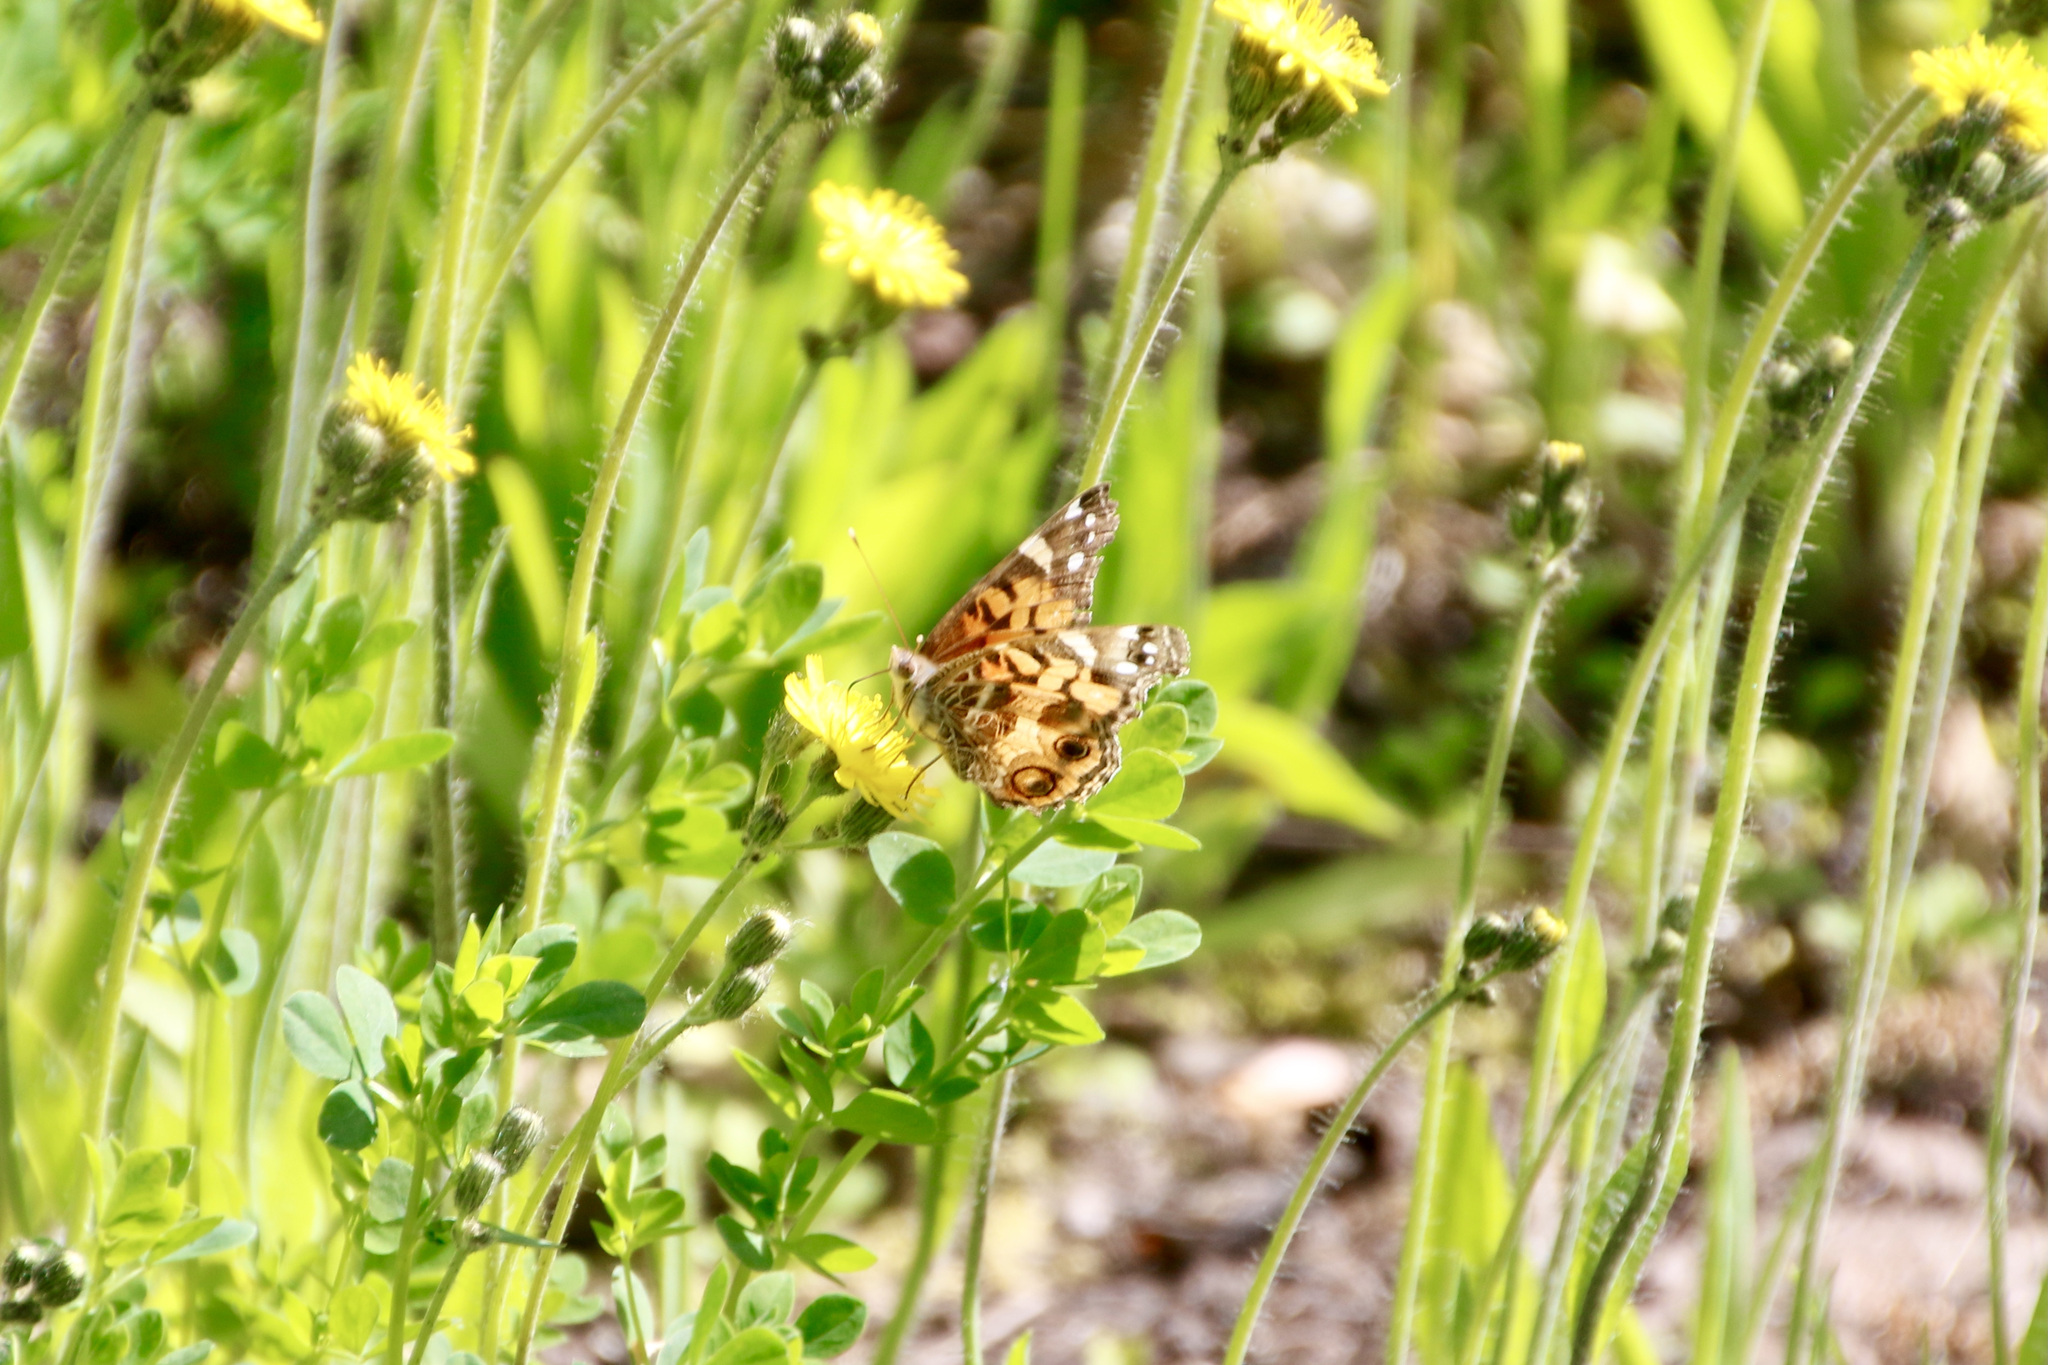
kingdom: Animalia
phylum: Arthropoda
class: Insecta
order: Lepidoptera
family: Nymphalidae
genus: Vanessa
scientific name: Vanessa virginiensis
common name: American lady
